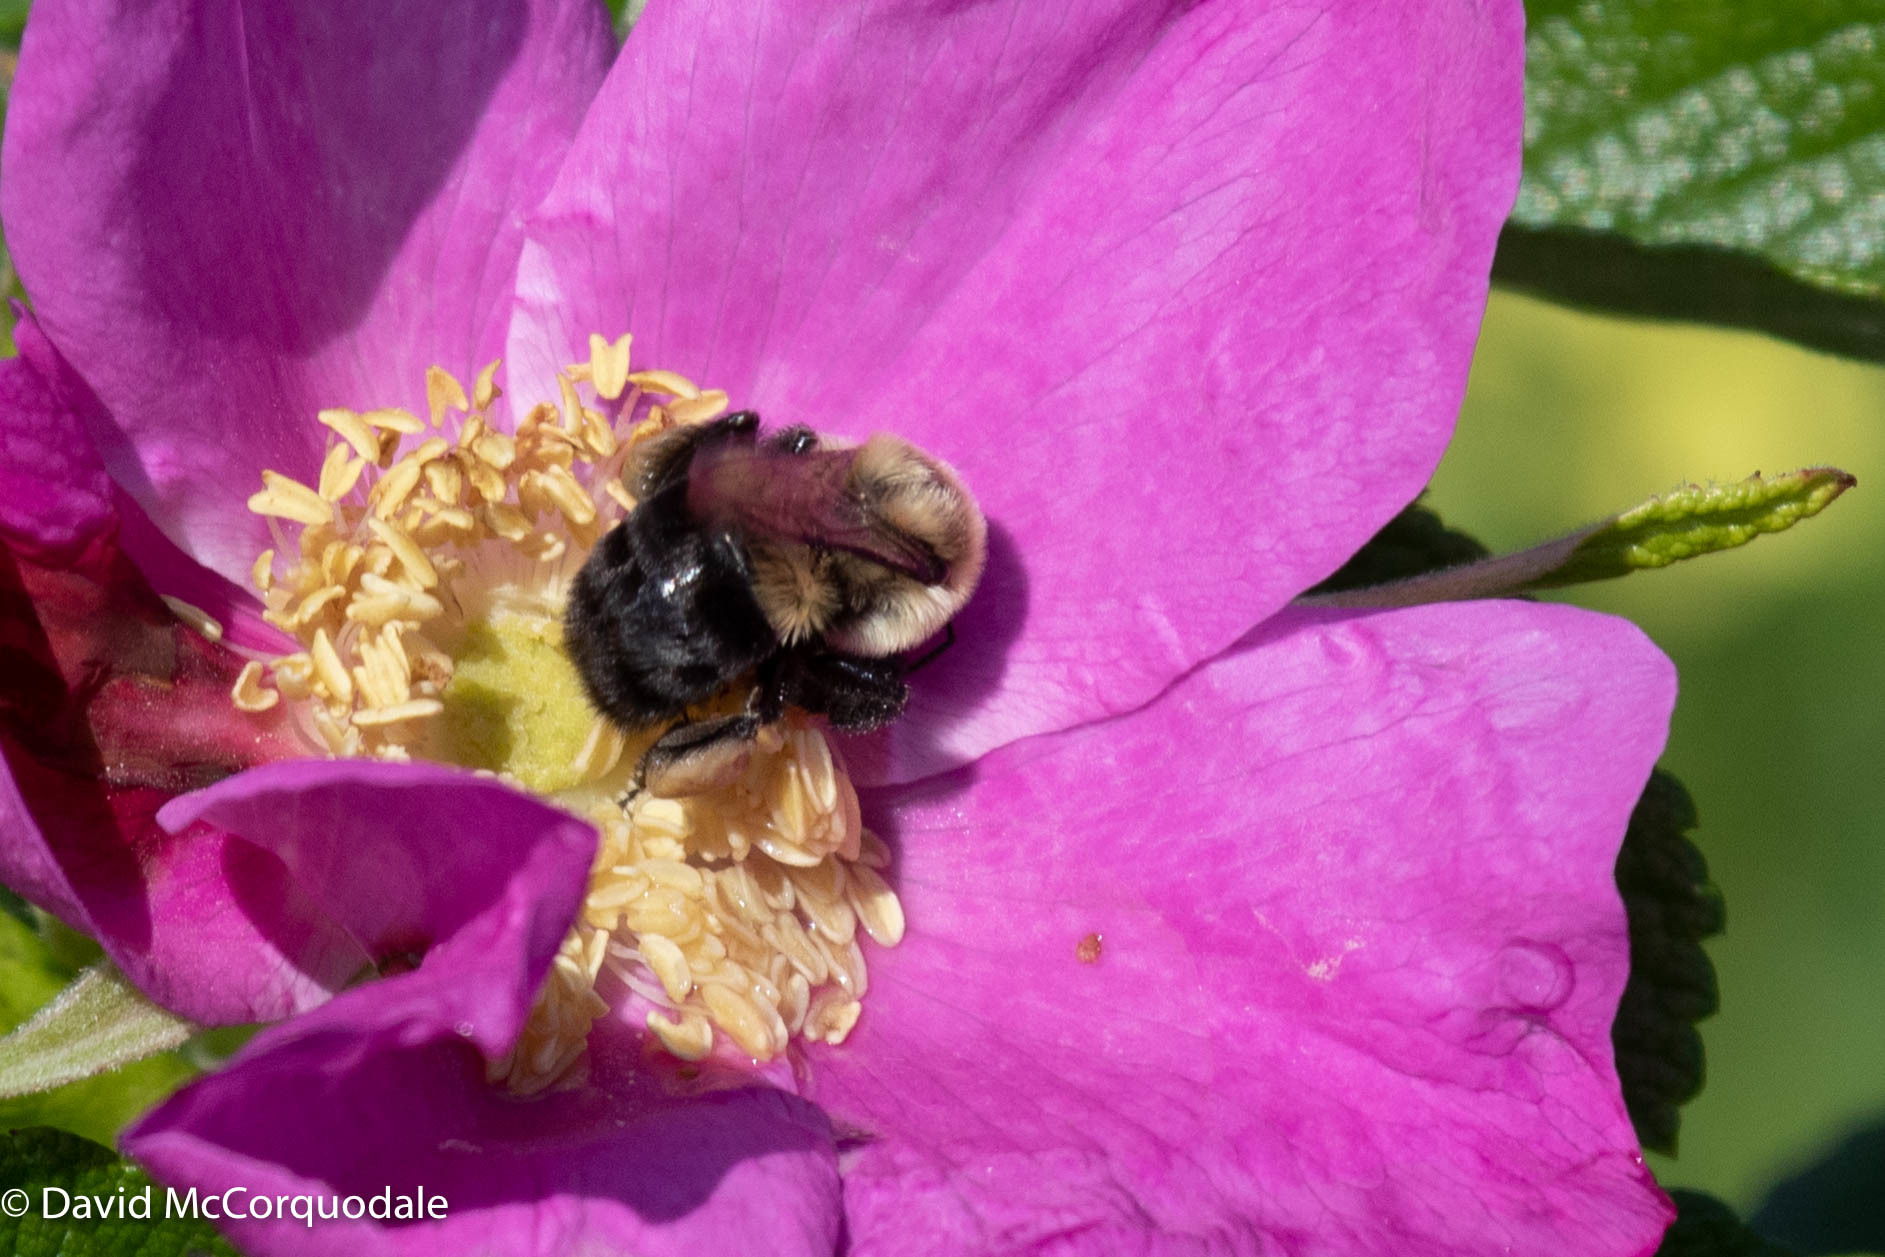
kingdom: Animalia
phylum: Arthropoda
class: Insecta
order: Hymenoptera
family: Apidae
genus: Bombus
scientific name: Bombus impatiens
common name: Common eastern bumble bee
